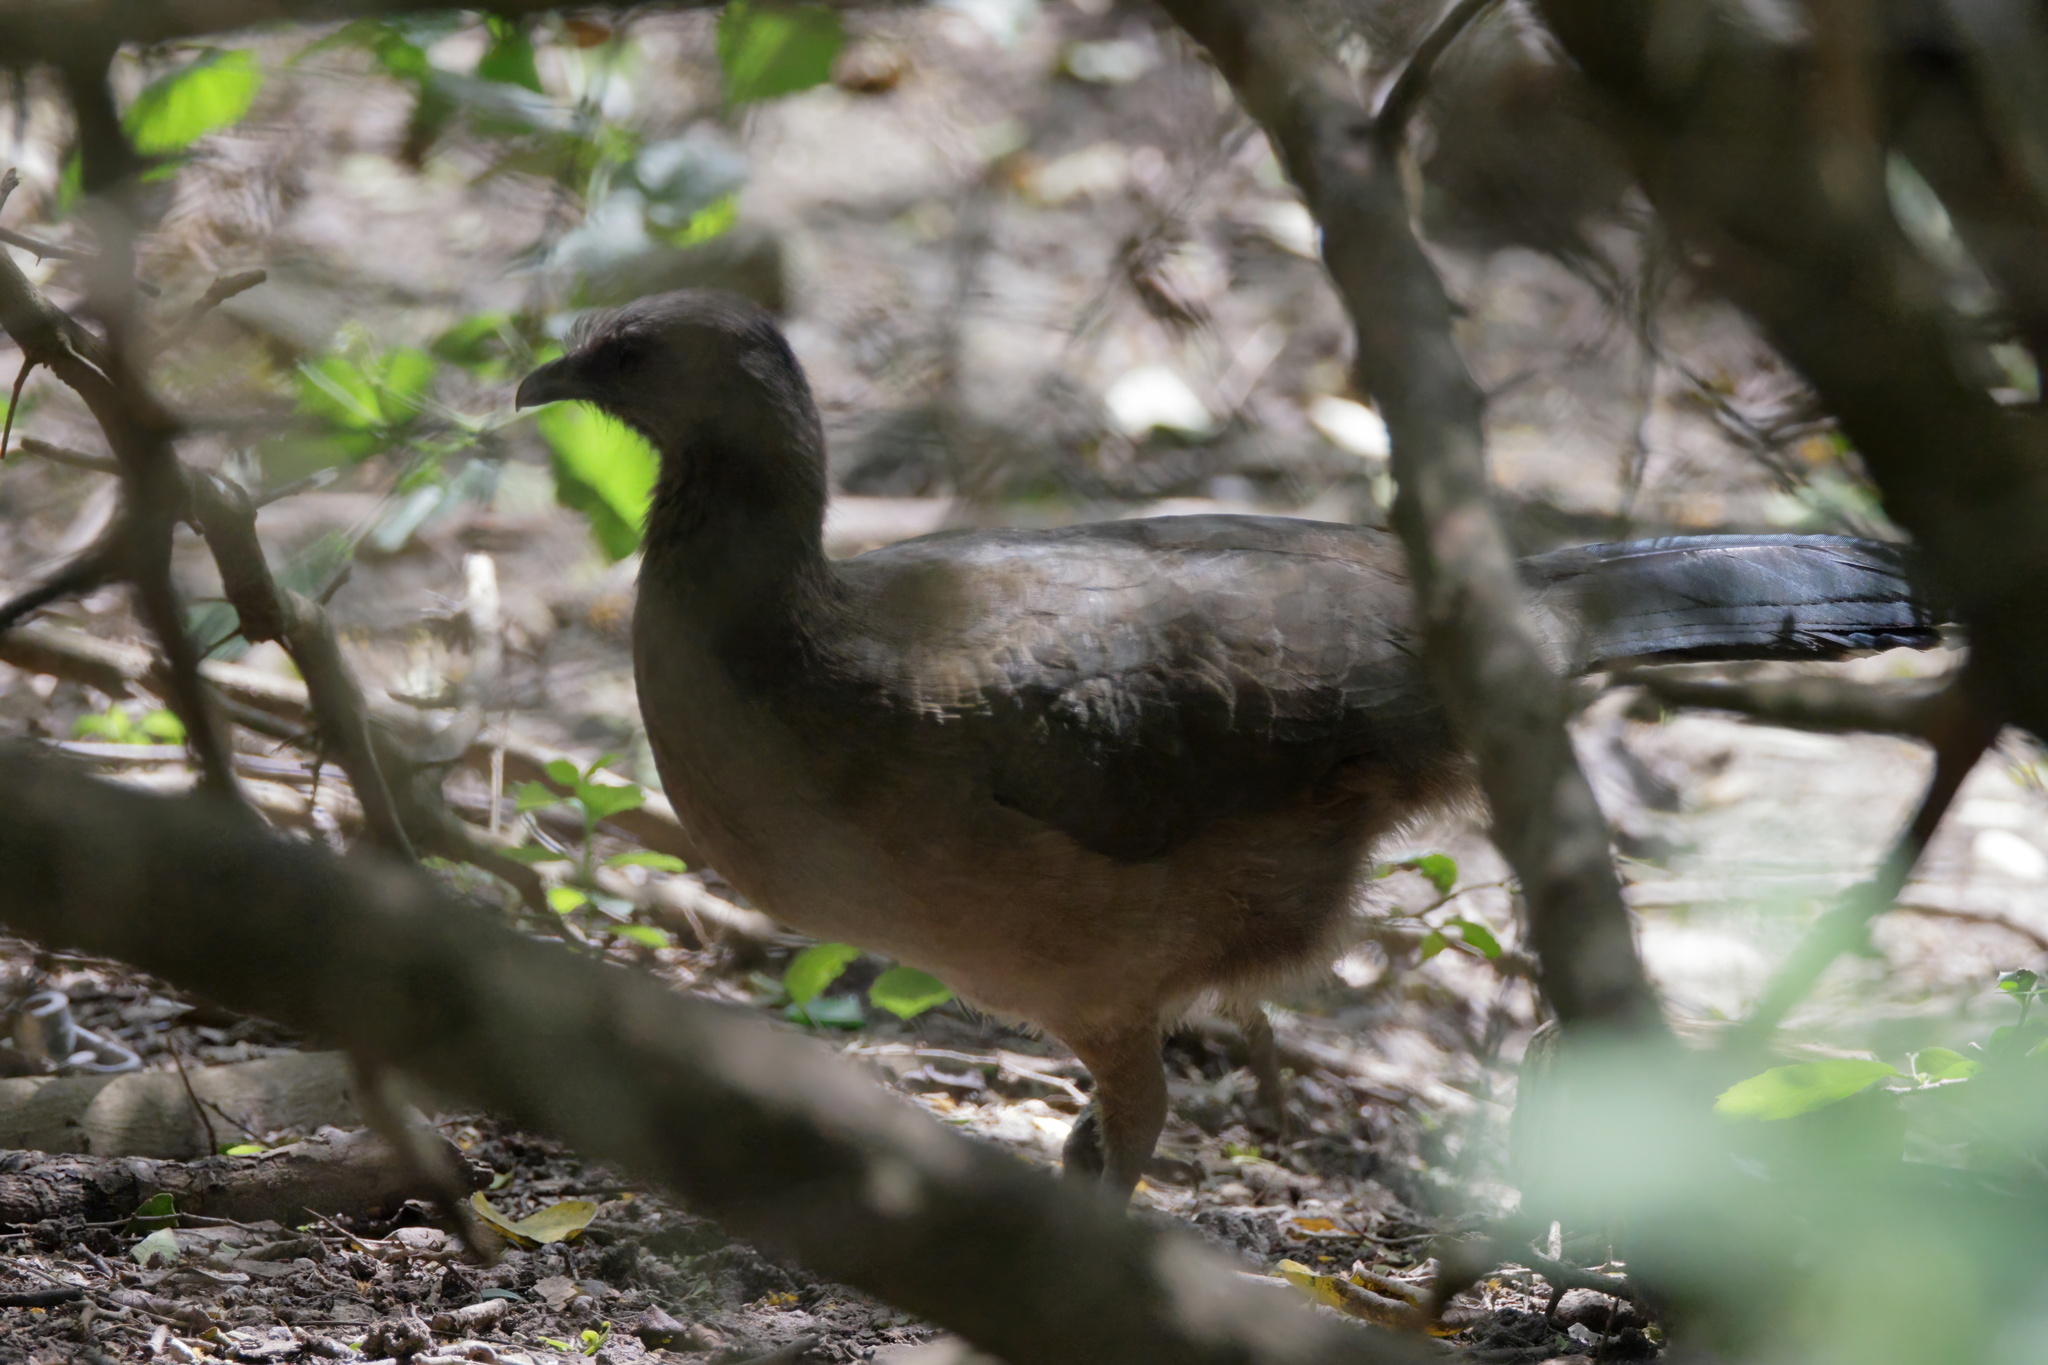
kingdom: Animalia
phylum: Chordata
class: Aves
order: Galliformes
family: Cracidae
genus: Ortalis
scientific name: Ortalis vetula
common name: Plain chachalaca
